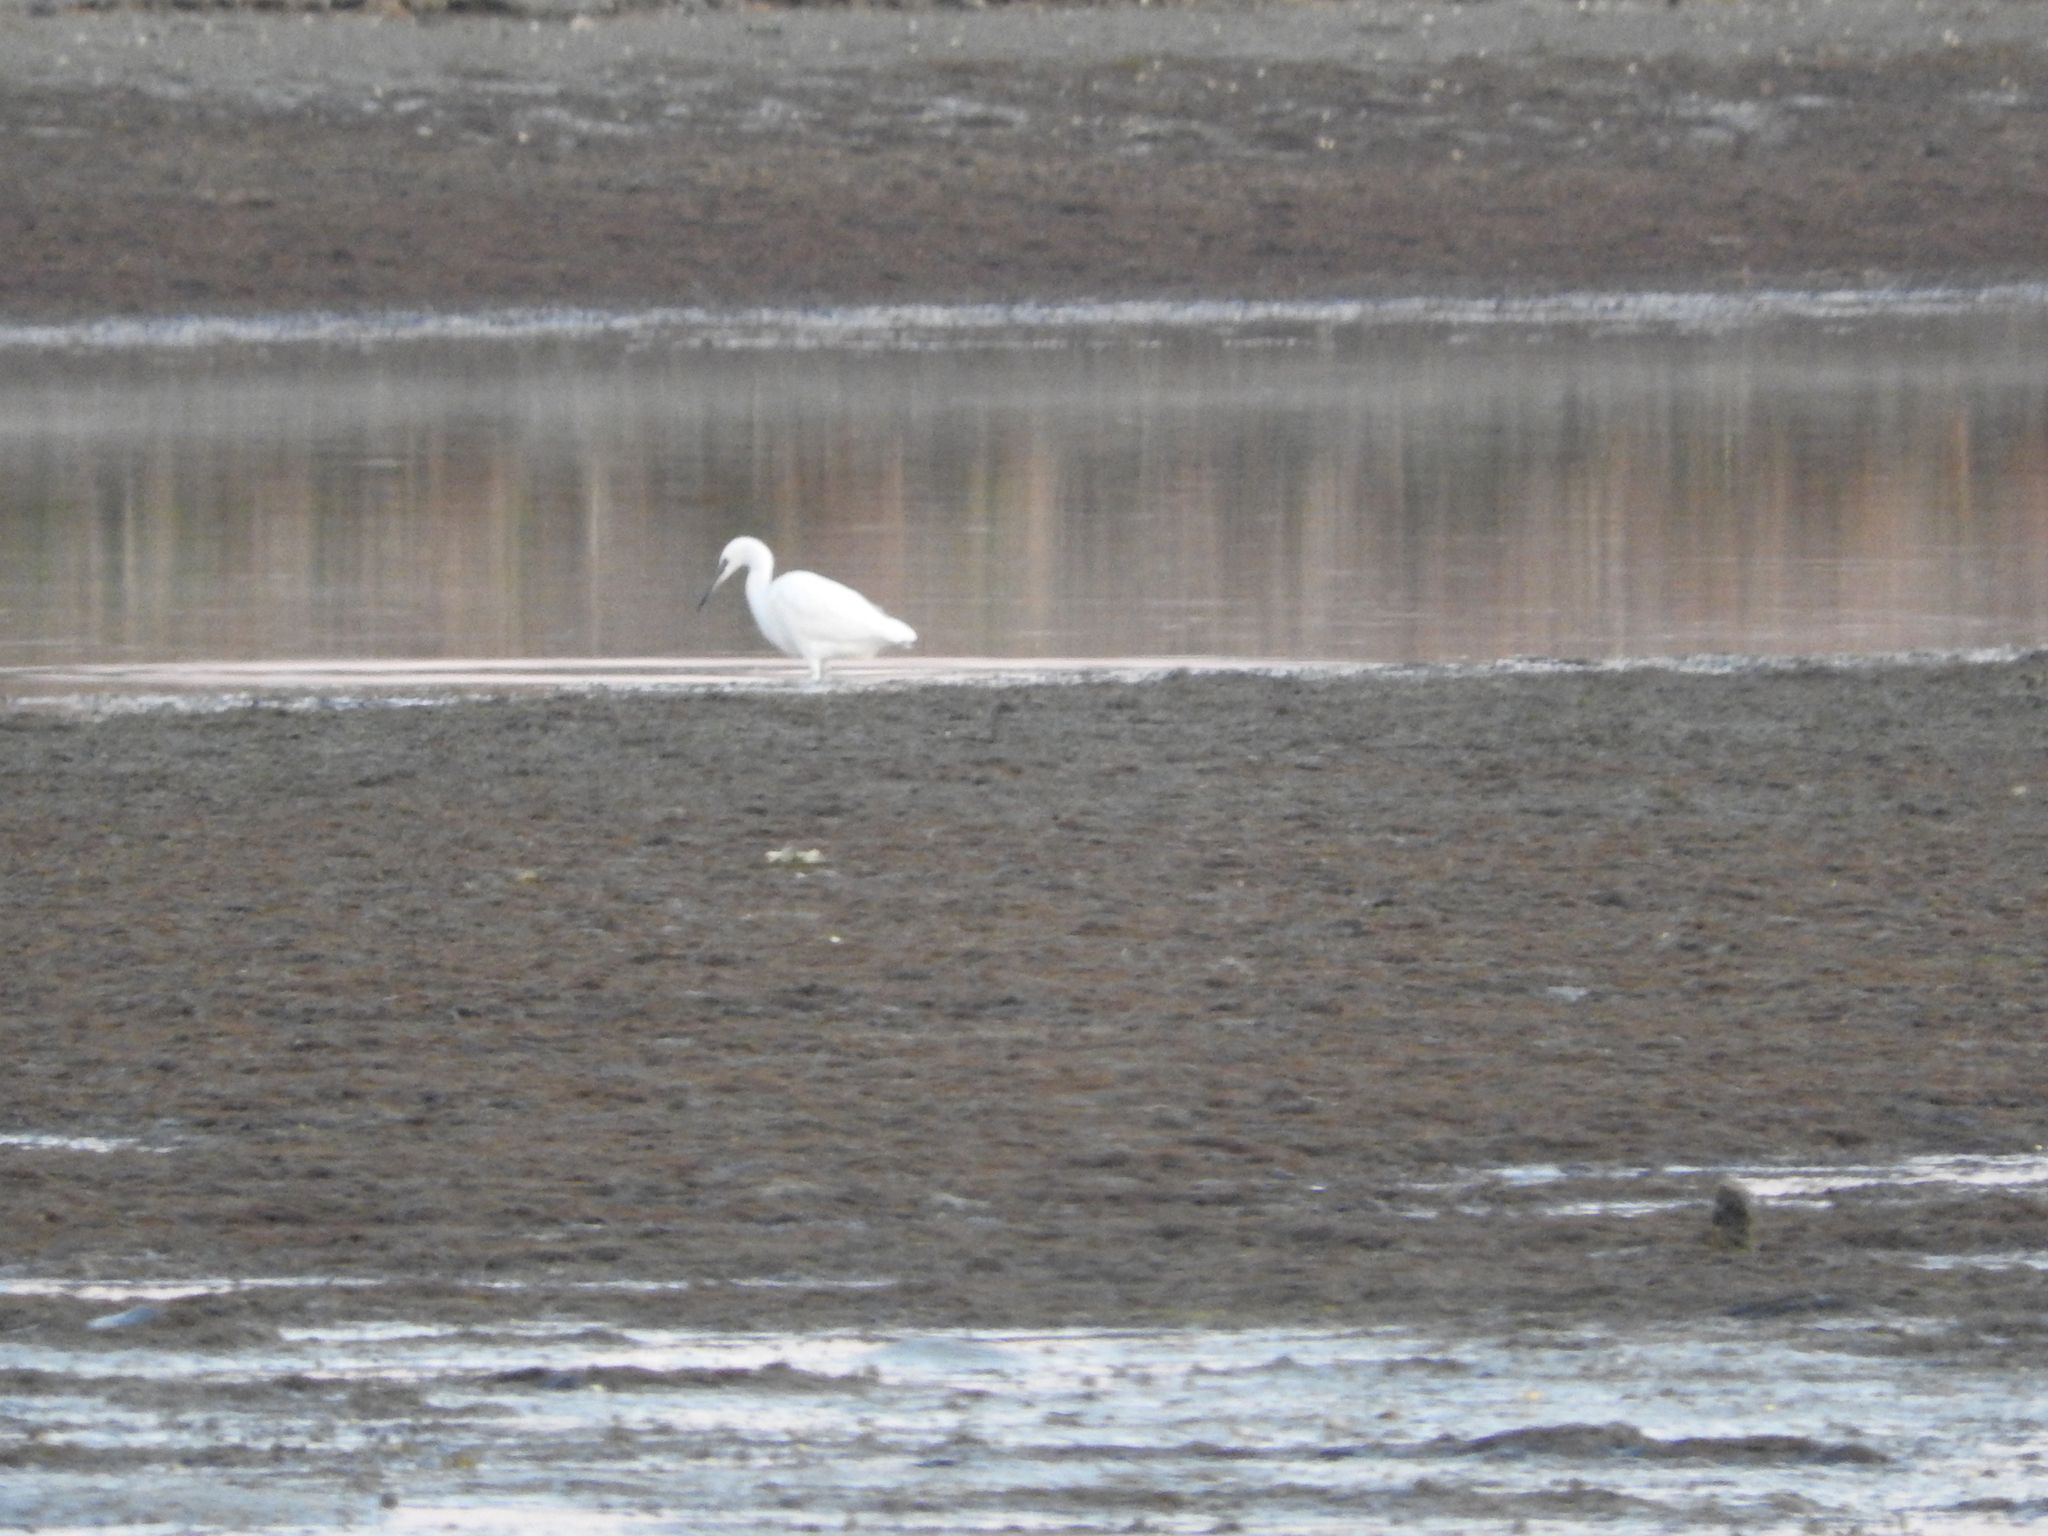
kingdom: Animalia
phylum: Chordata
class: Aves
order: Pelecaniformes
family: Ardeidae
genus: Egretta
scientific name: Egretta garzetta
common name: Little egret
